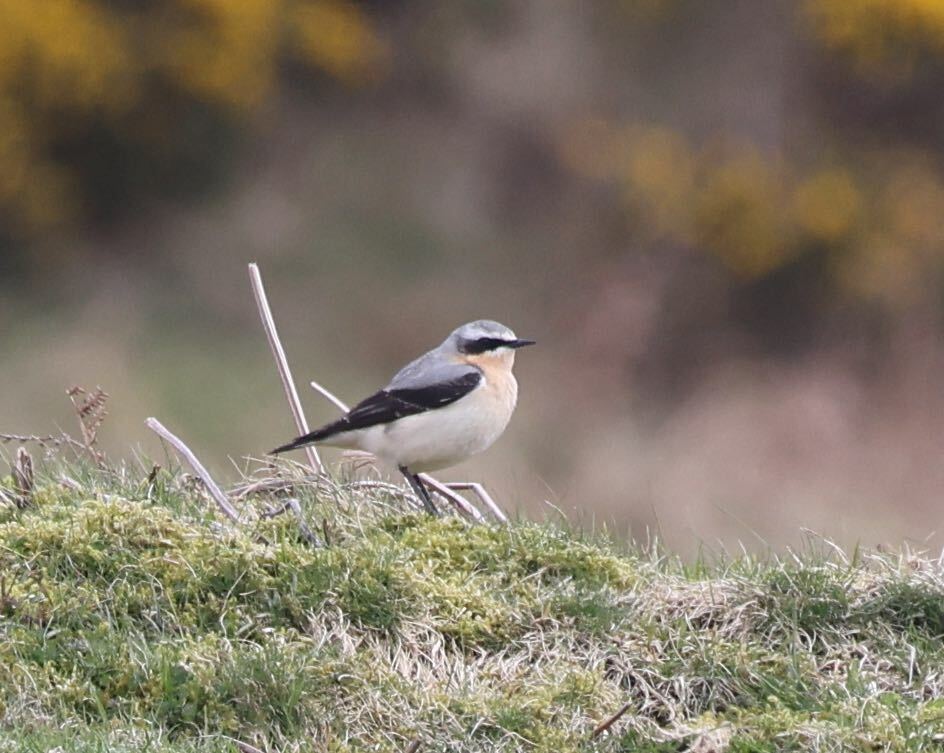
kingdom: Animalia
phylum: Chordata
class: Aves
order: Passeriformes
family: Muscicapidae
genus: Oenanthe
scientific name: Oenanthe oenanthe
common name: Northern wheatear
